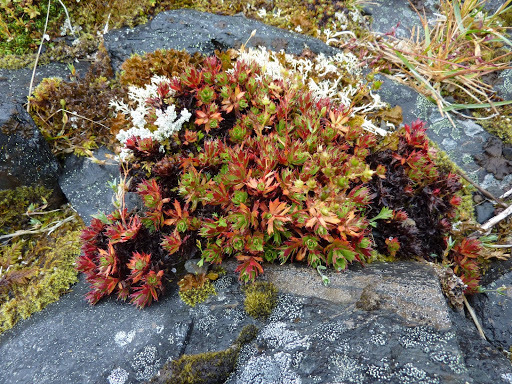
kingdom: Plantae
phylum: Tracheophyta
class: Magnoliopsida
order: Saxifragales
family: Saxifragaceae
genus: Saxifraga
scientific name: Saxifraga tricuspidata
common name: Prickly saxifrage
